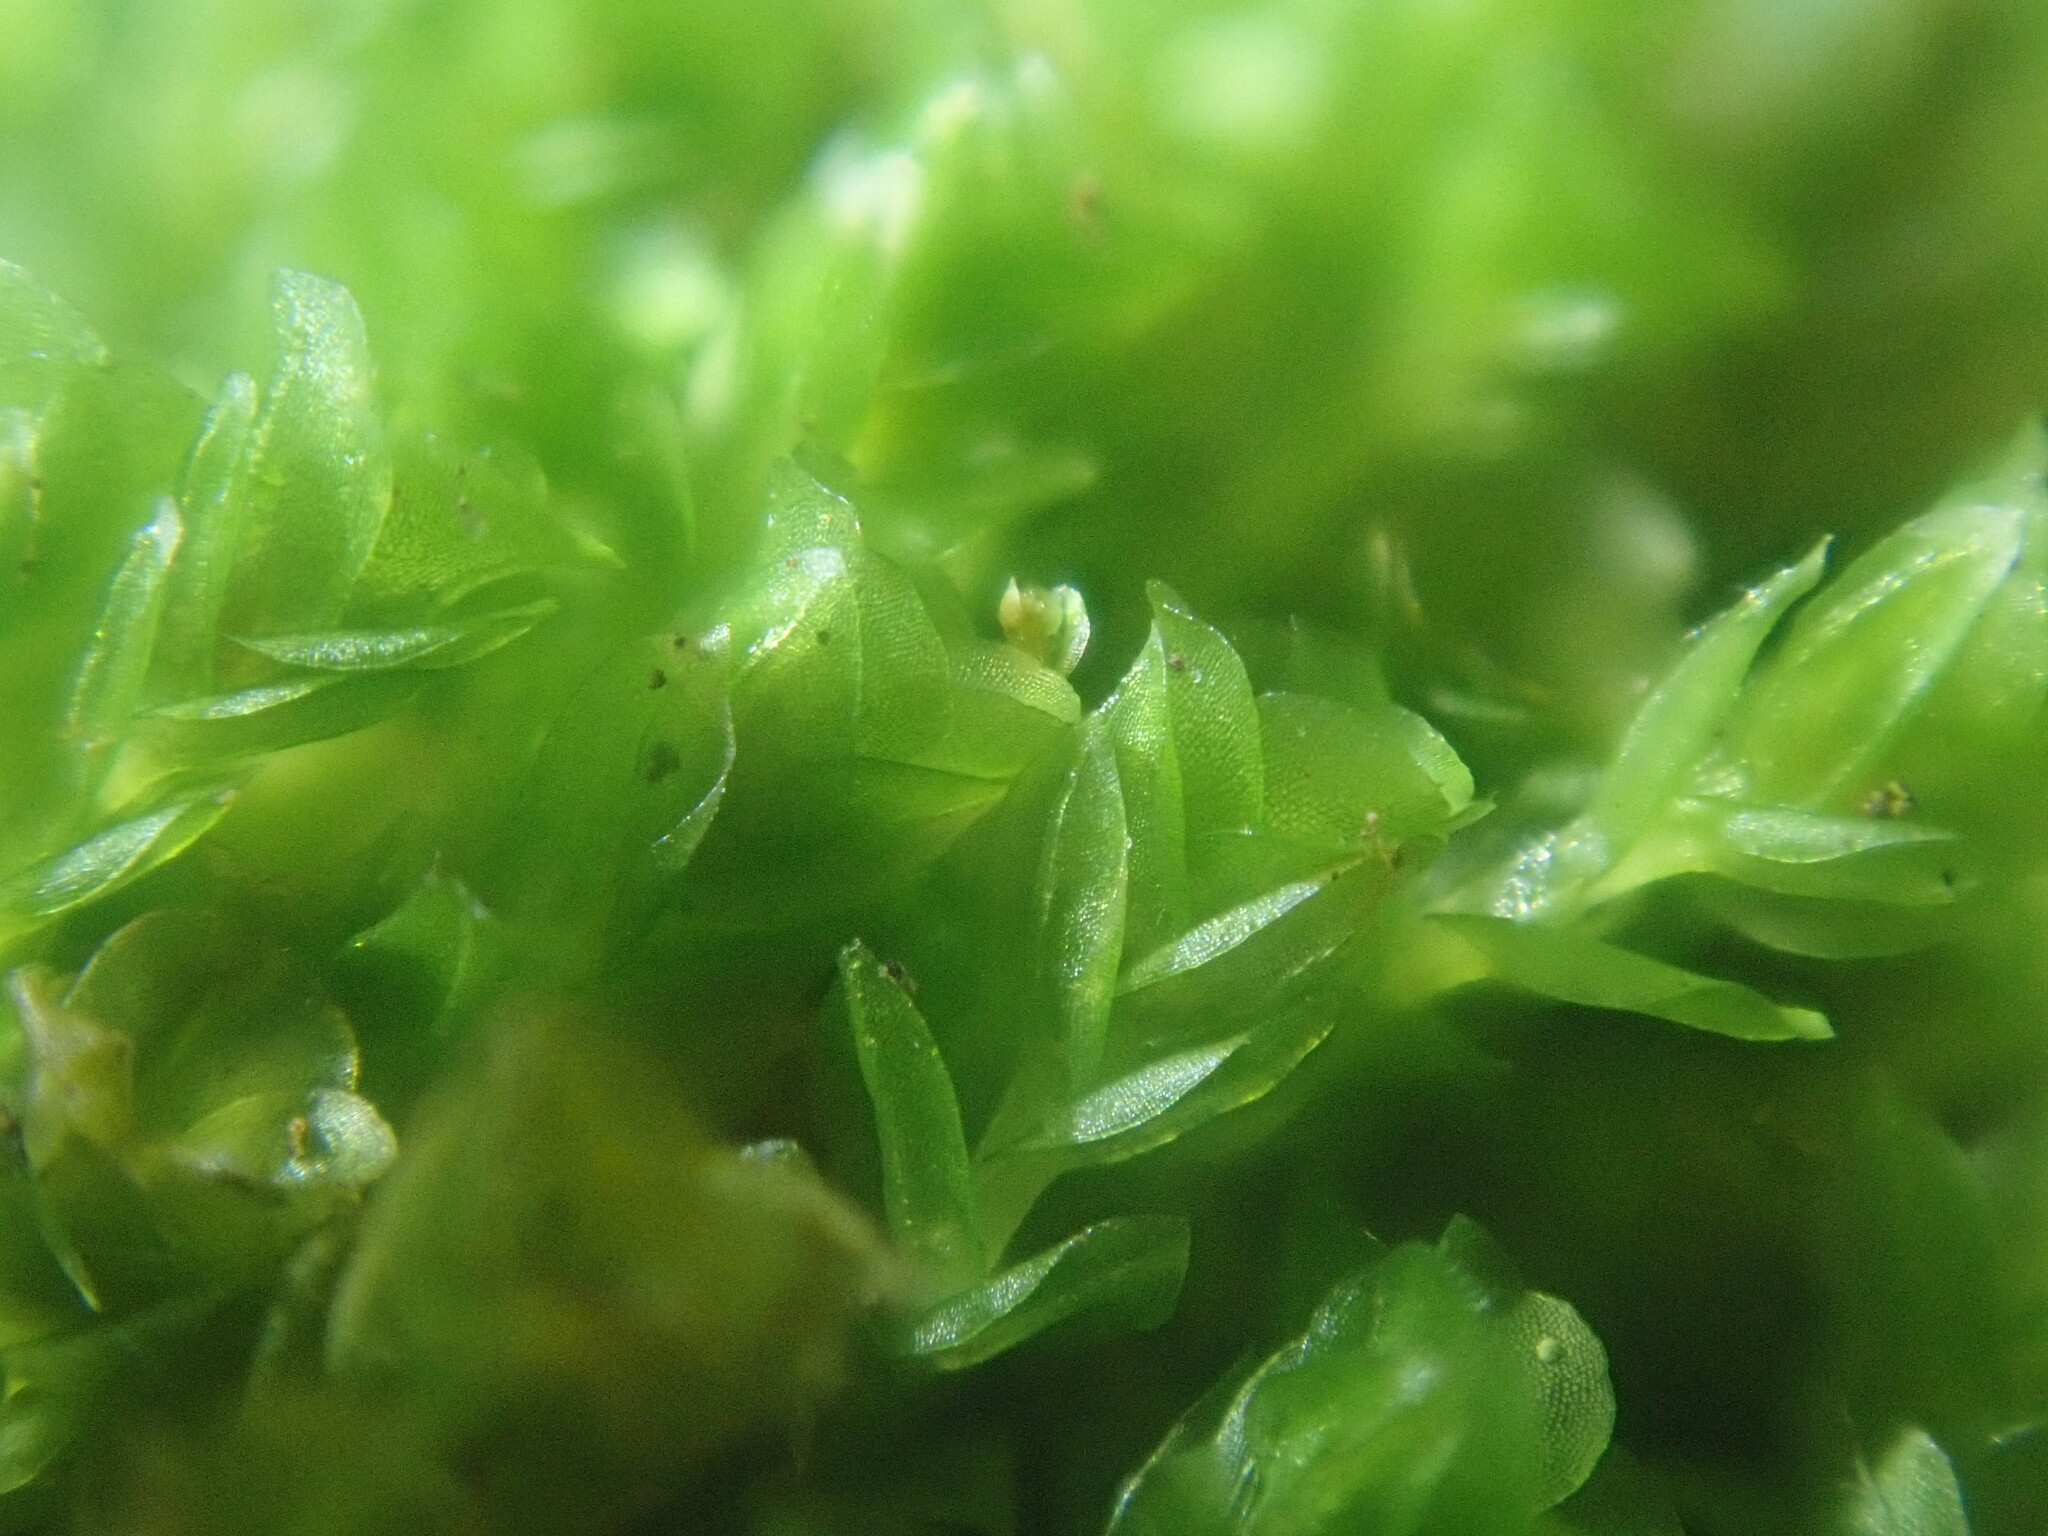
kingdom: Plantae
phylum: Bryophyta
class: Polytrichopsida
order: Tetraphidales
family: Tetraphidaceae
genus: Tetraphis
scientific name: Tetraphis pellucida
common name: Common four-toothed moss
